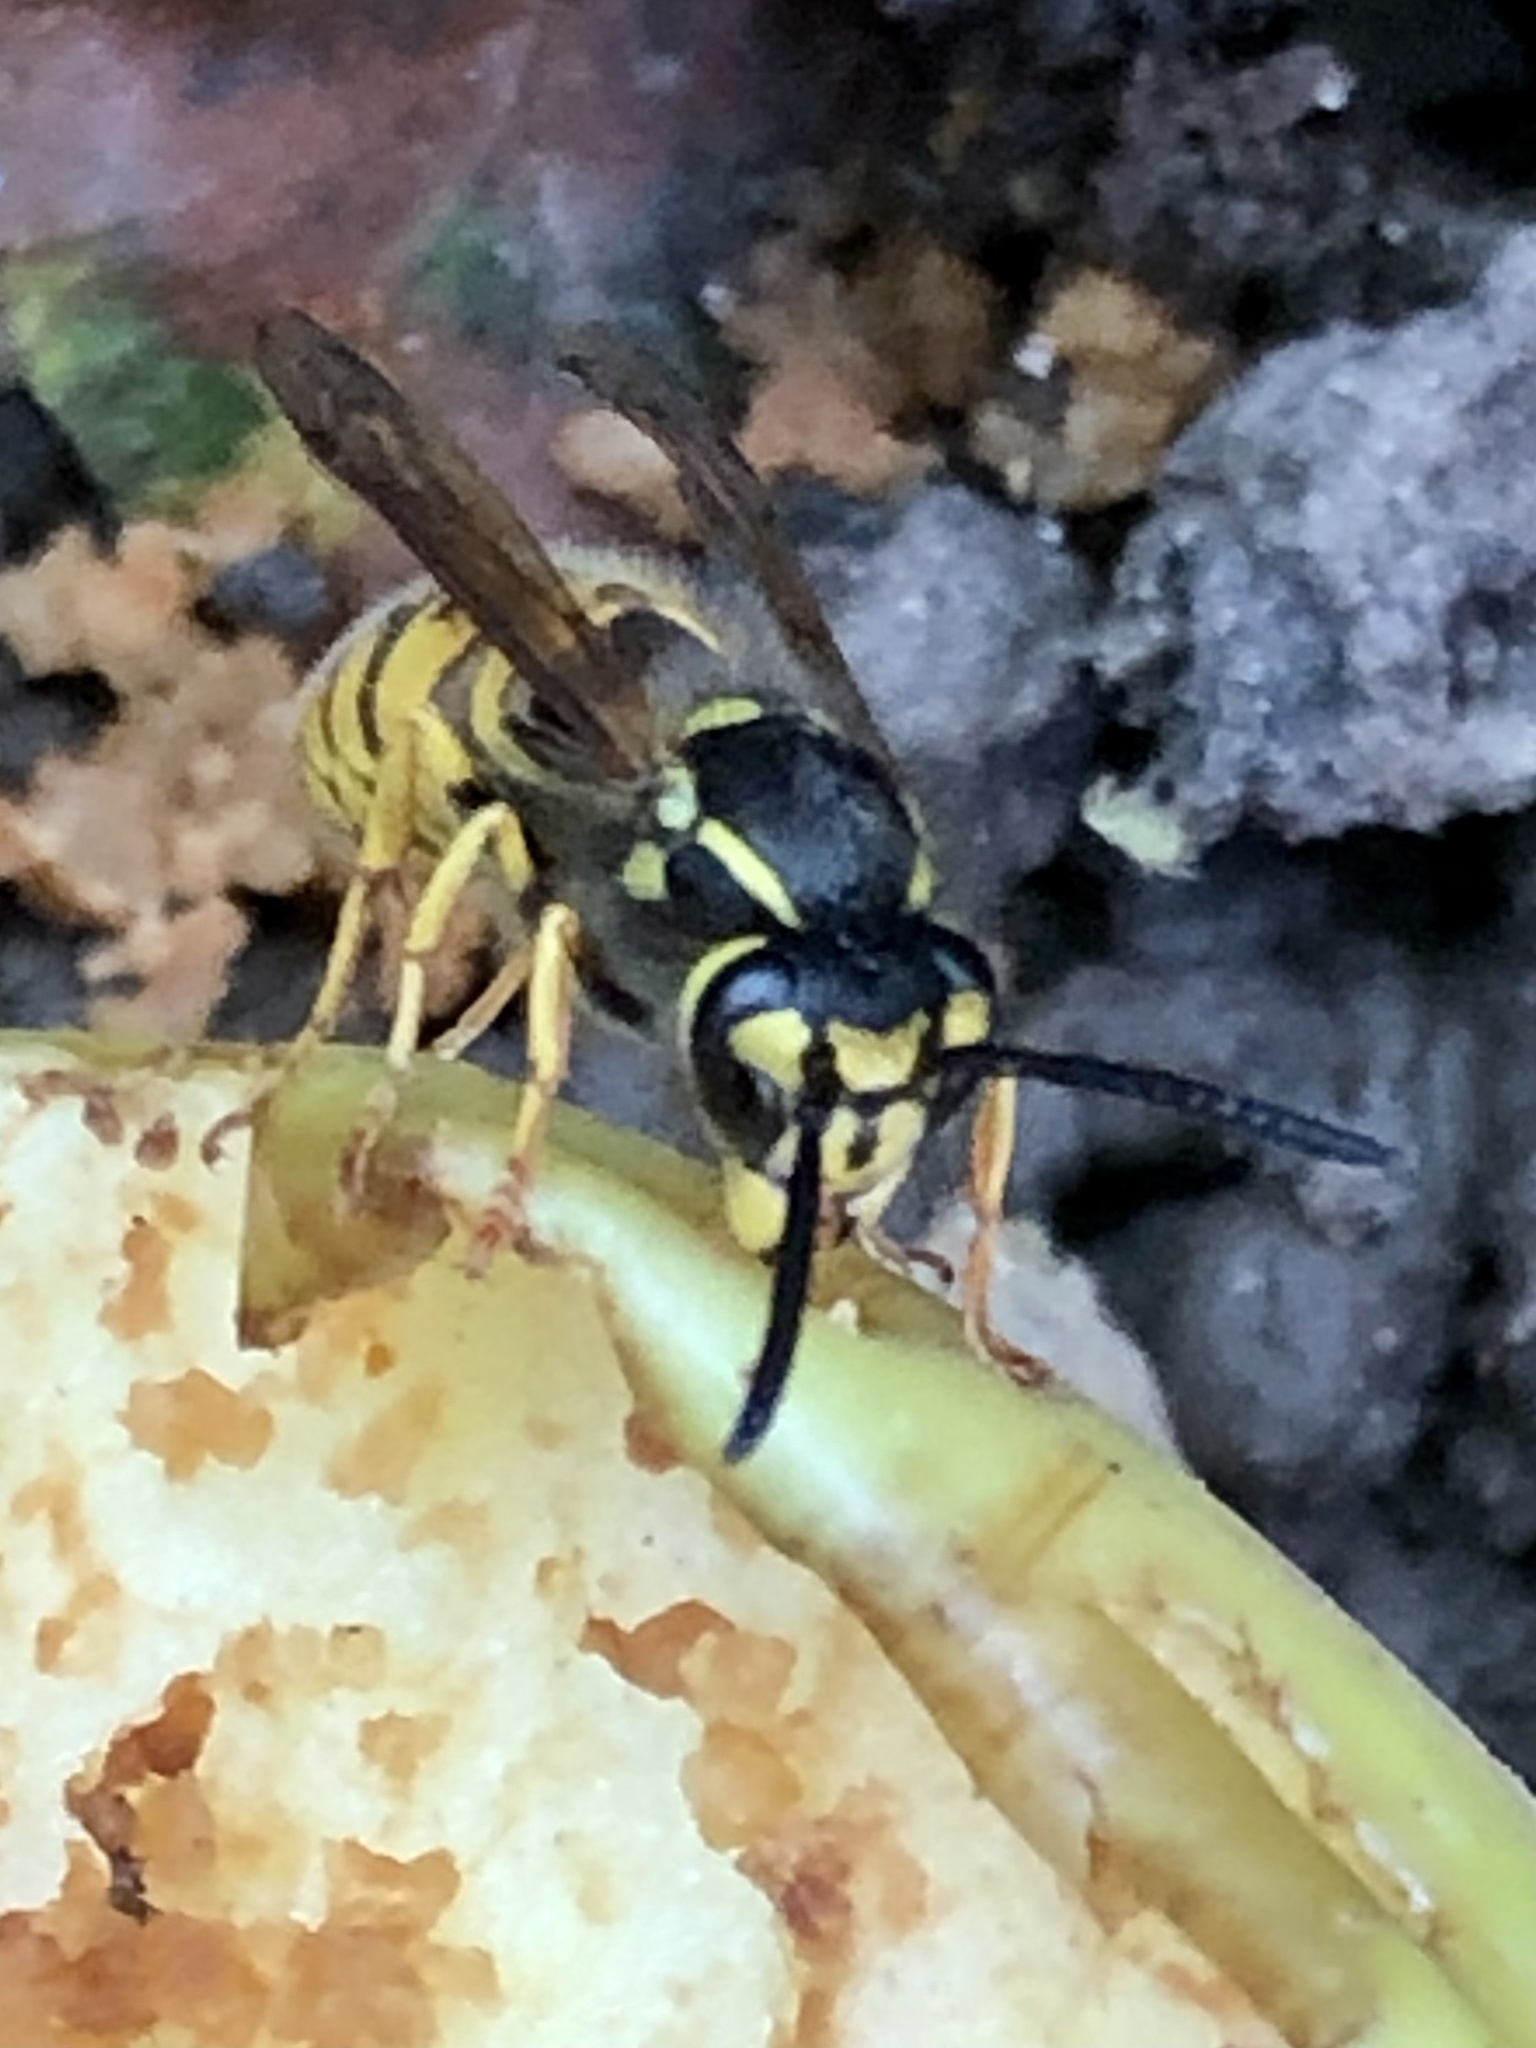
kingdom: Animalia
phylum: Arthropoda
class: Insecta
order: Hymenoptera
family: Vespidae
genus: Vespula
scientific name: Vespula germanica
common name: German wasp
